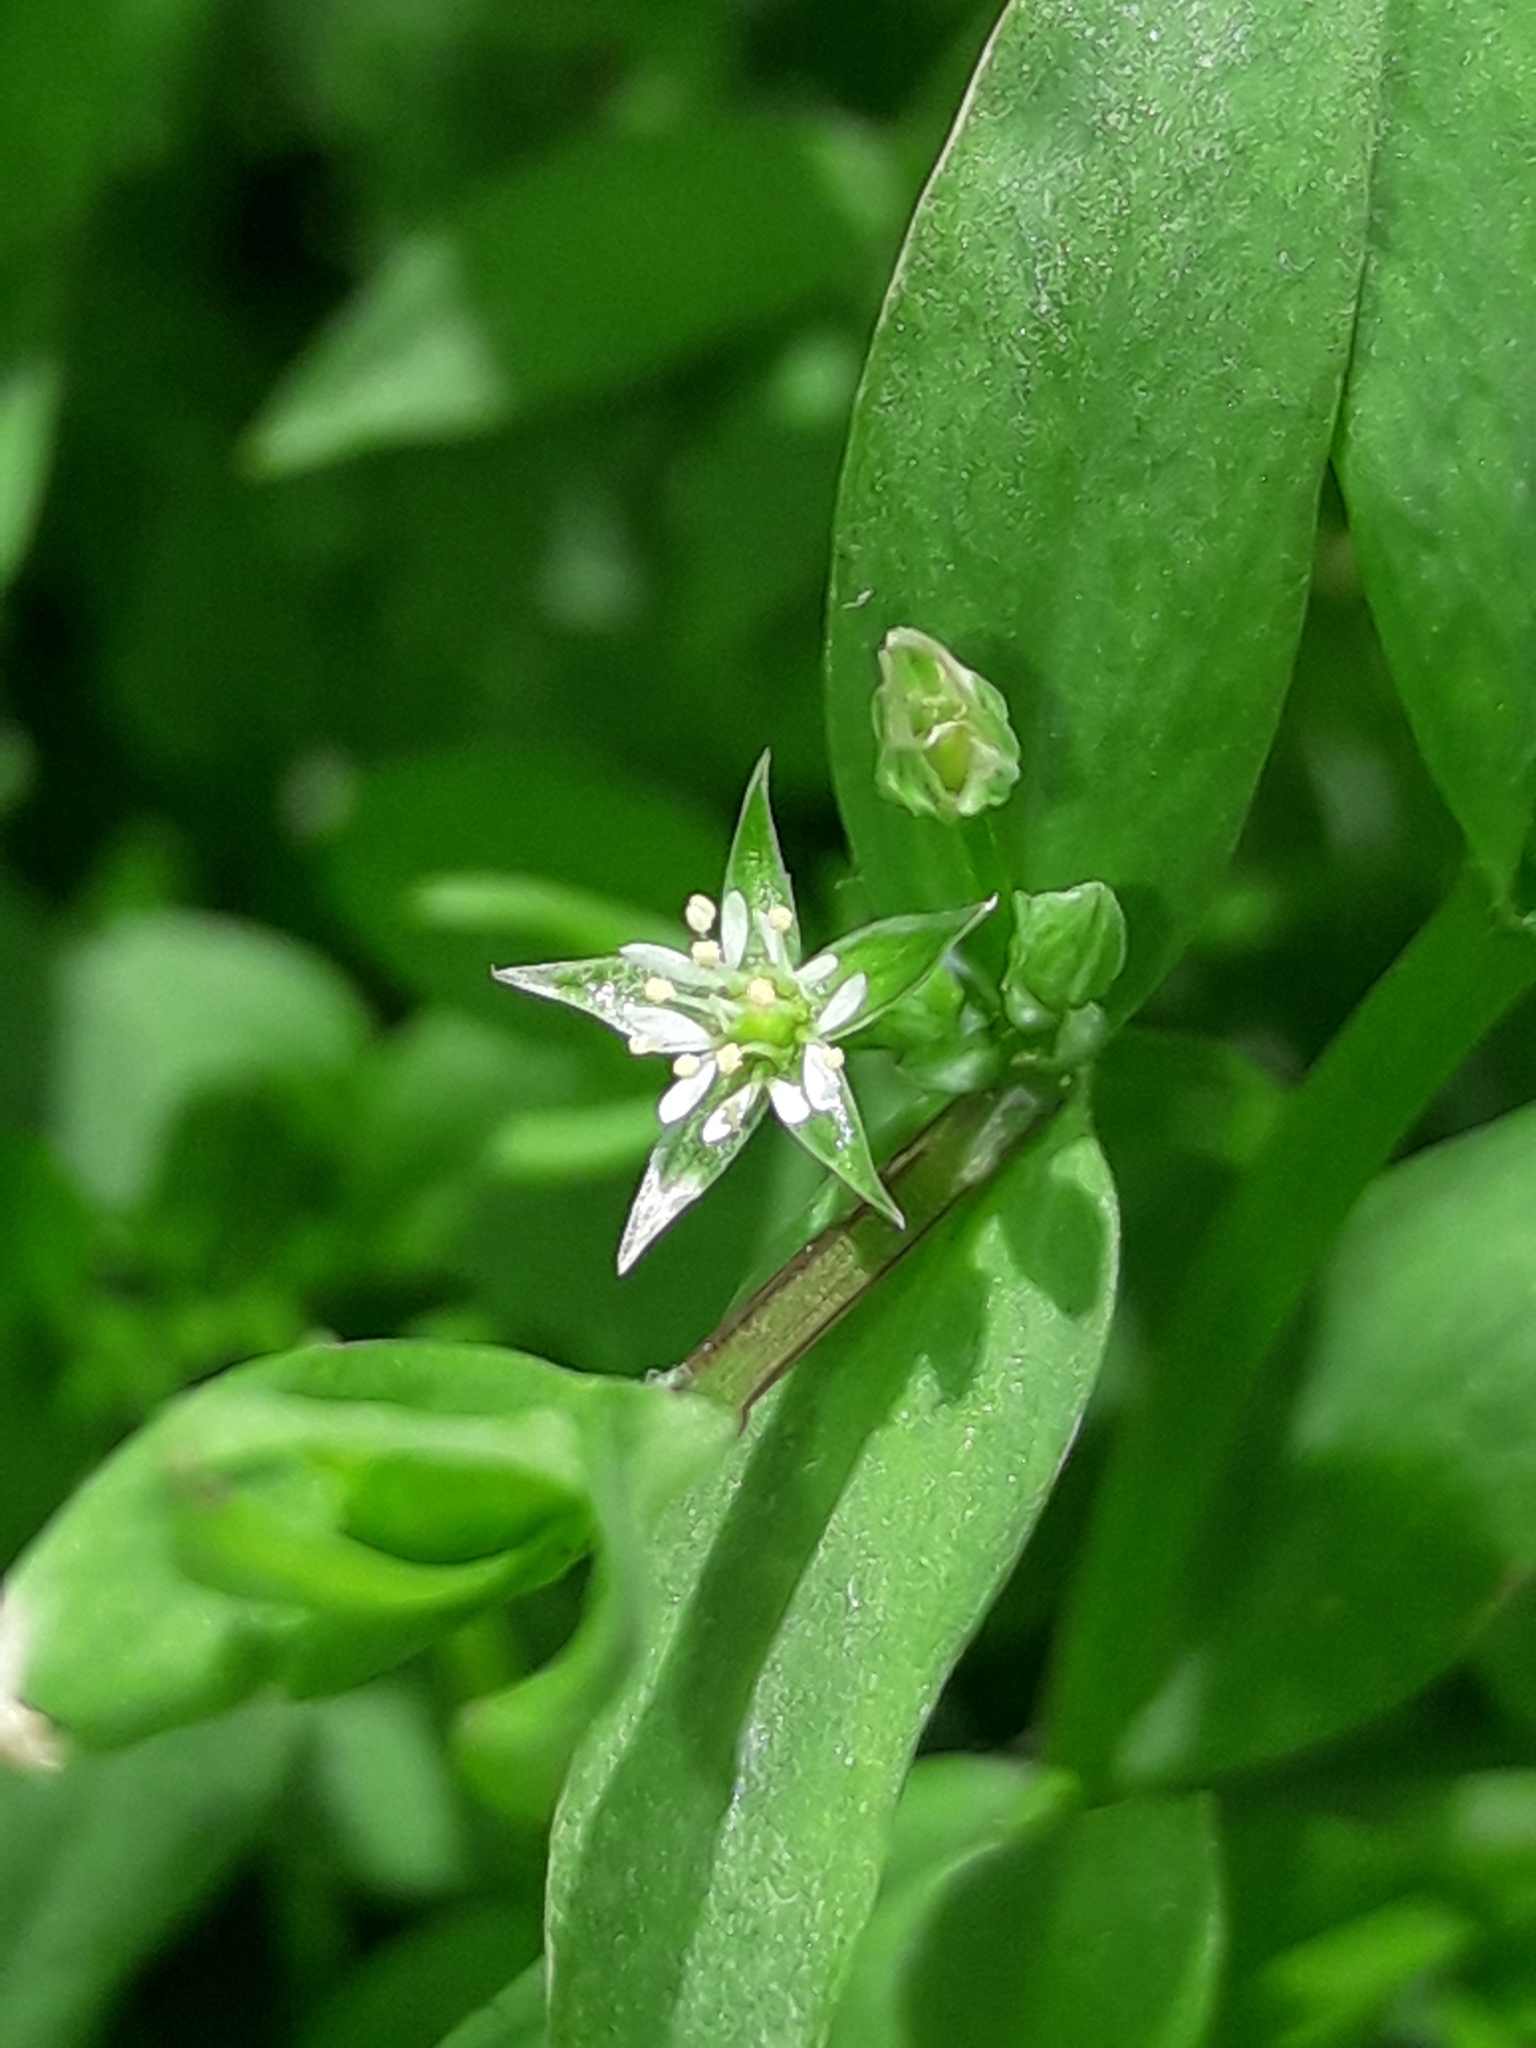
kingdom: Plantae
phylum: Tracheophyta
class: Magnoliopsida
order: Caryophyllales
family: Caryophyllaceae
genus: Stellaria
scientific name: Stellaria alsine
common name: Bog stitchwort
